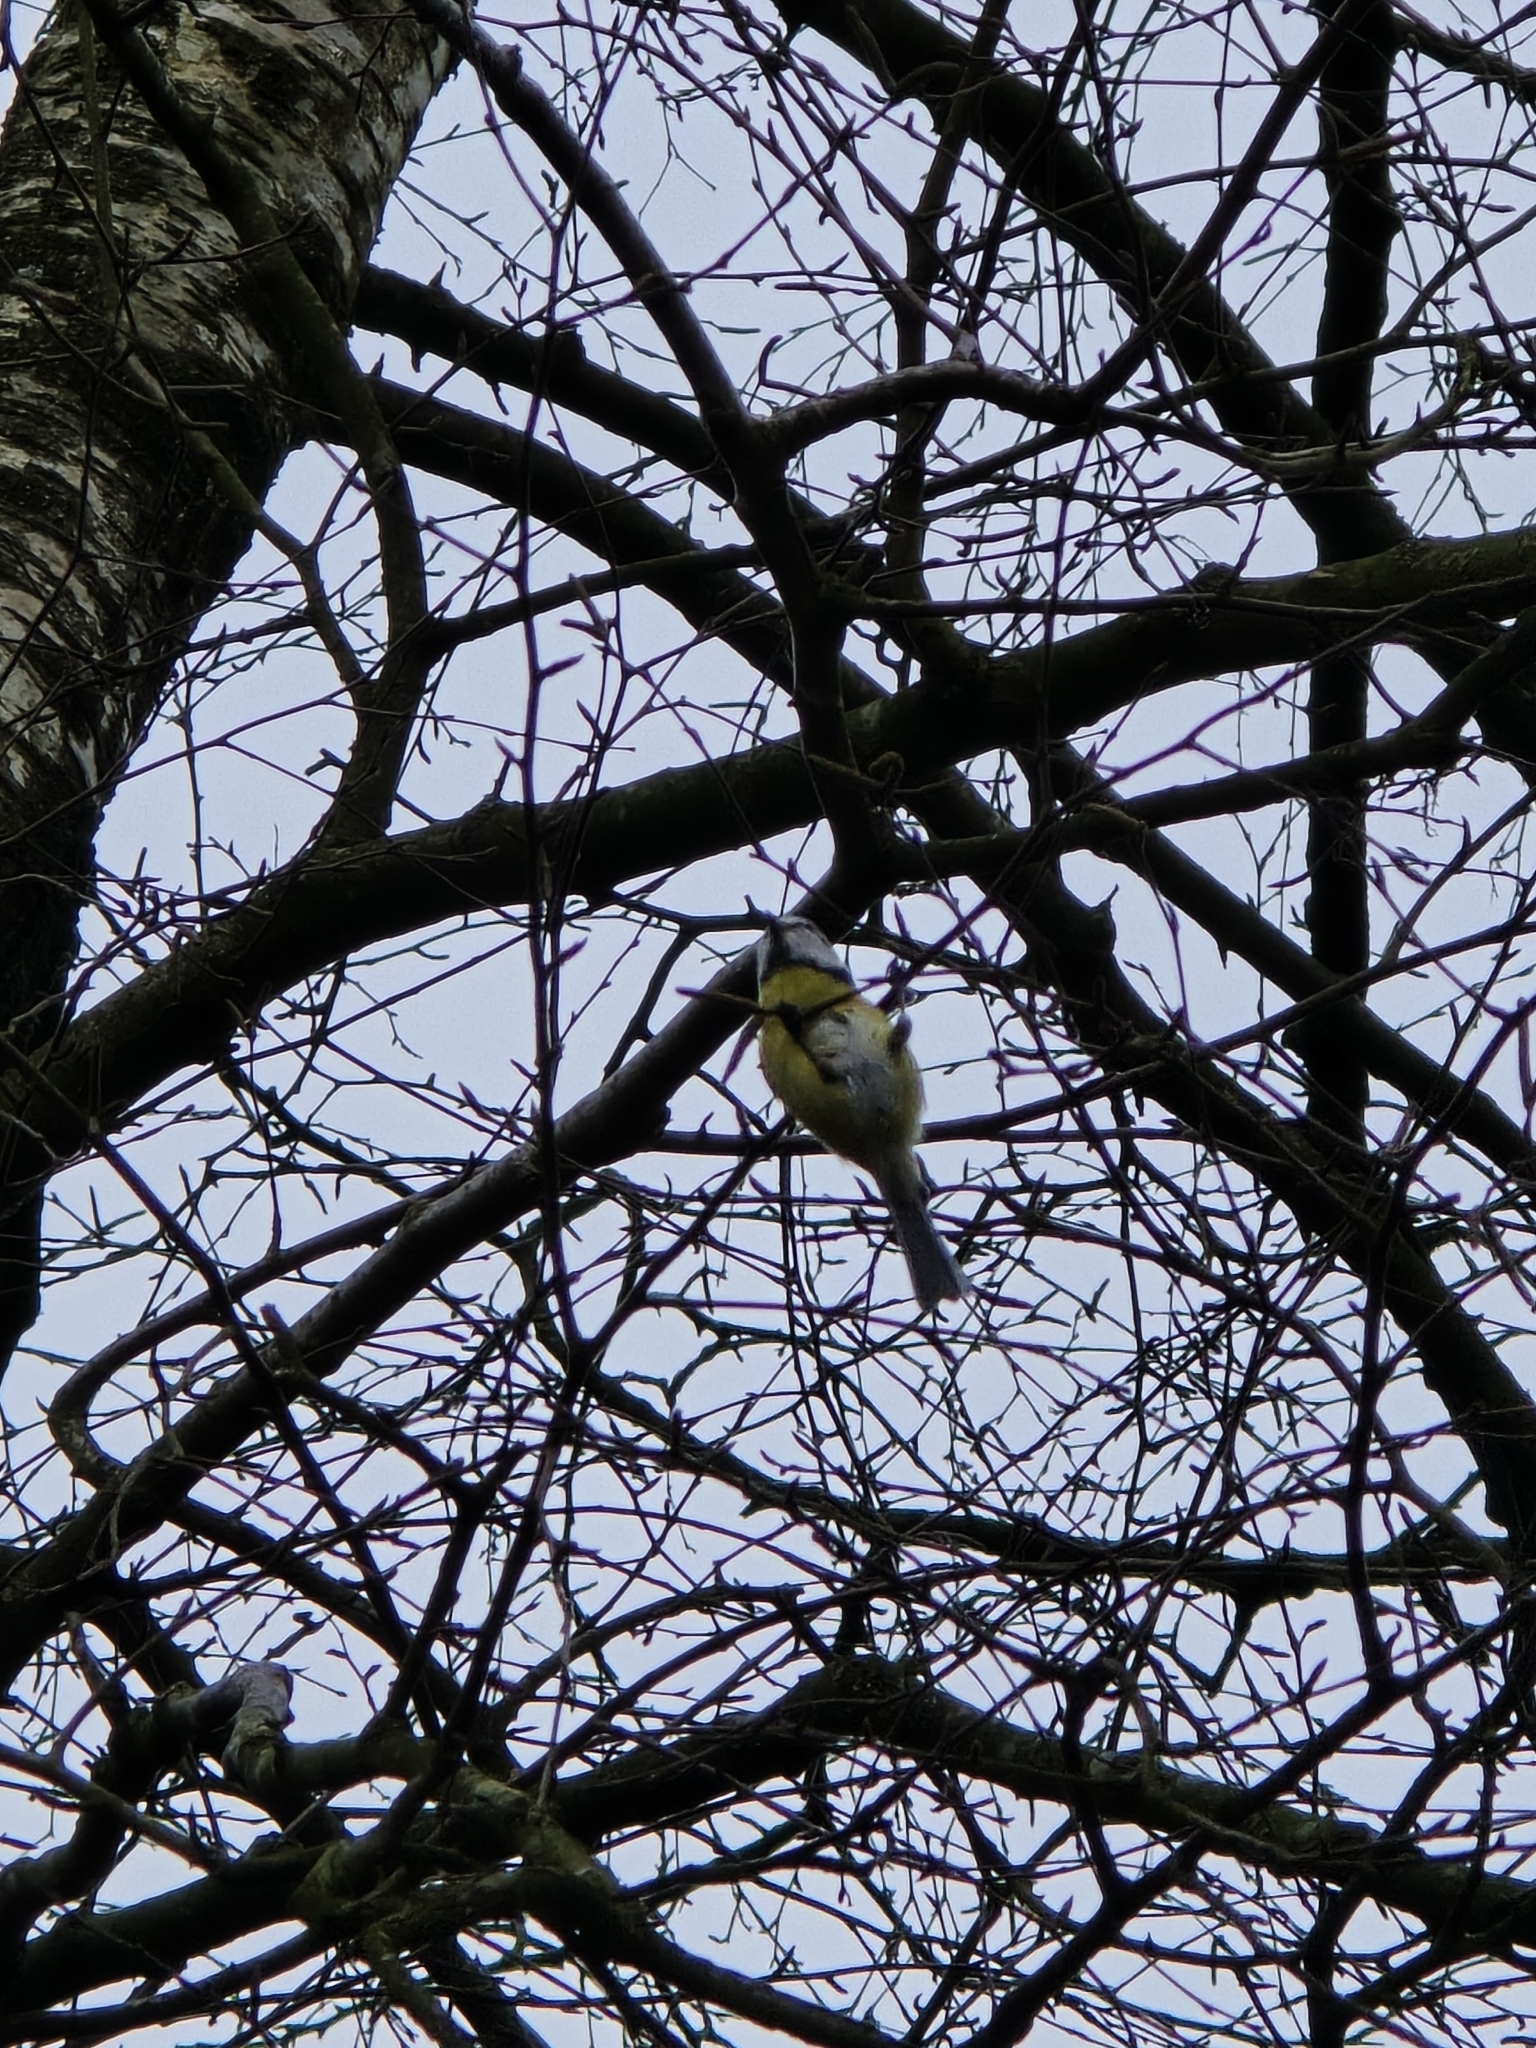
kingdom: Animalia
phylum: Chordata
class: Aves
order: Passeriformes
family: Paridae
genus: Cyanistes
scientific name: Cyanistes caeruleus
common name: Eurasian blue tit
